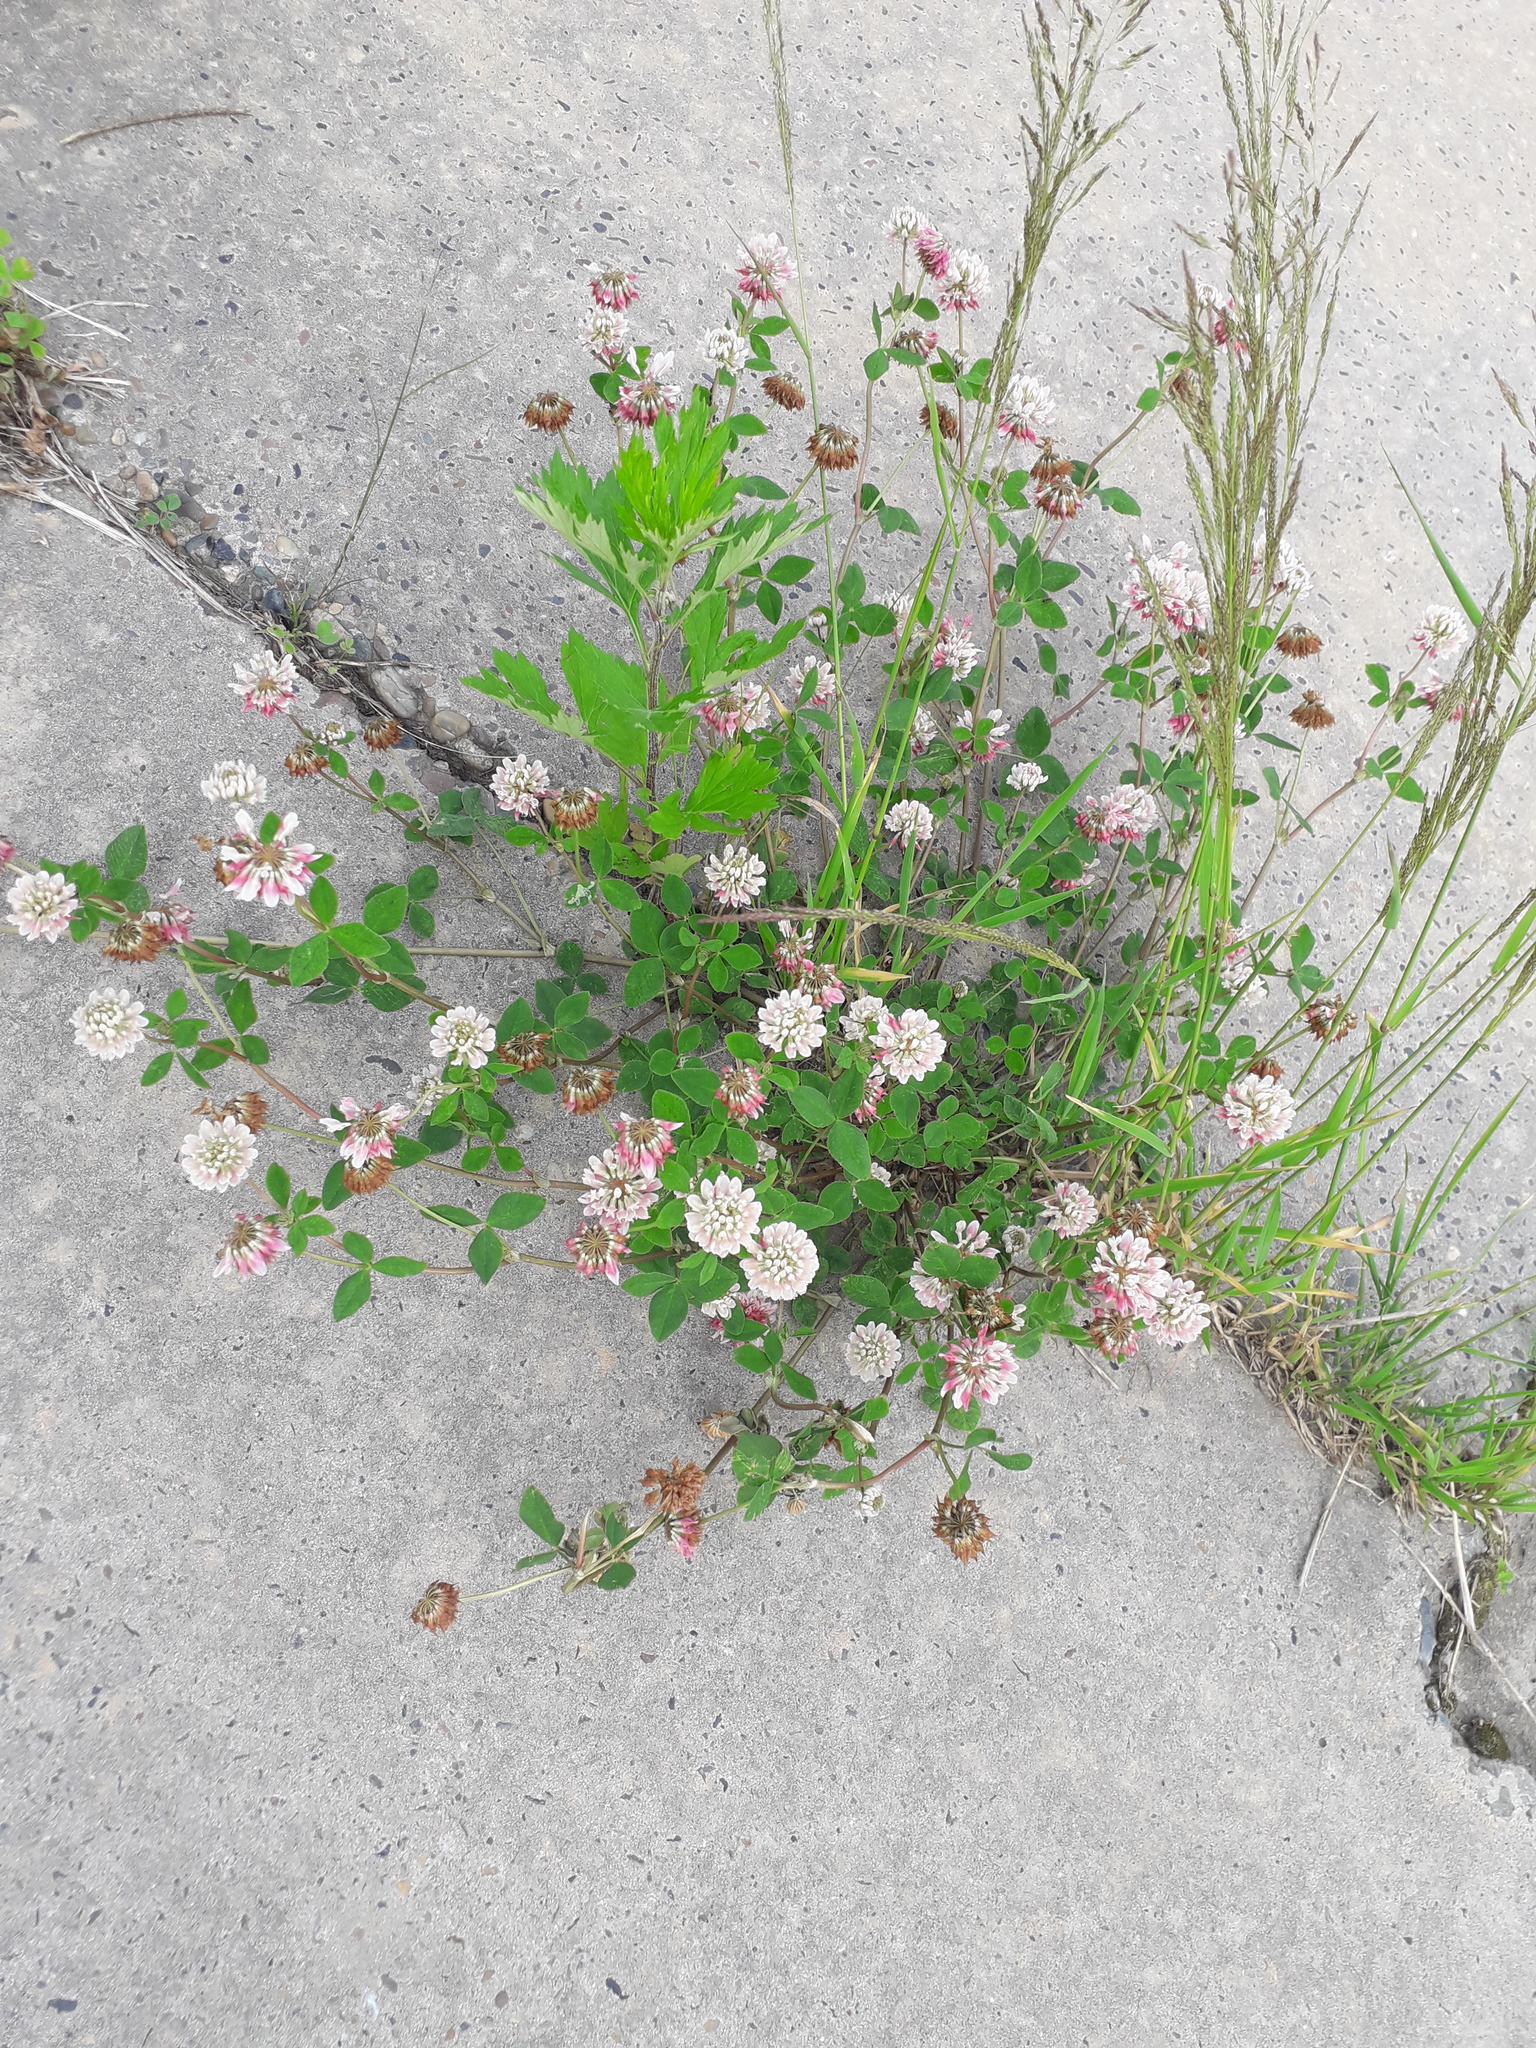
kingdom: Plantae
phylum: Tracheophyta
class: Magnoliopsida
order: Fabales
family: Fabaceae
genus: Trifolium
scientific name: Trifolium hybridum
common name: Alsike clover
